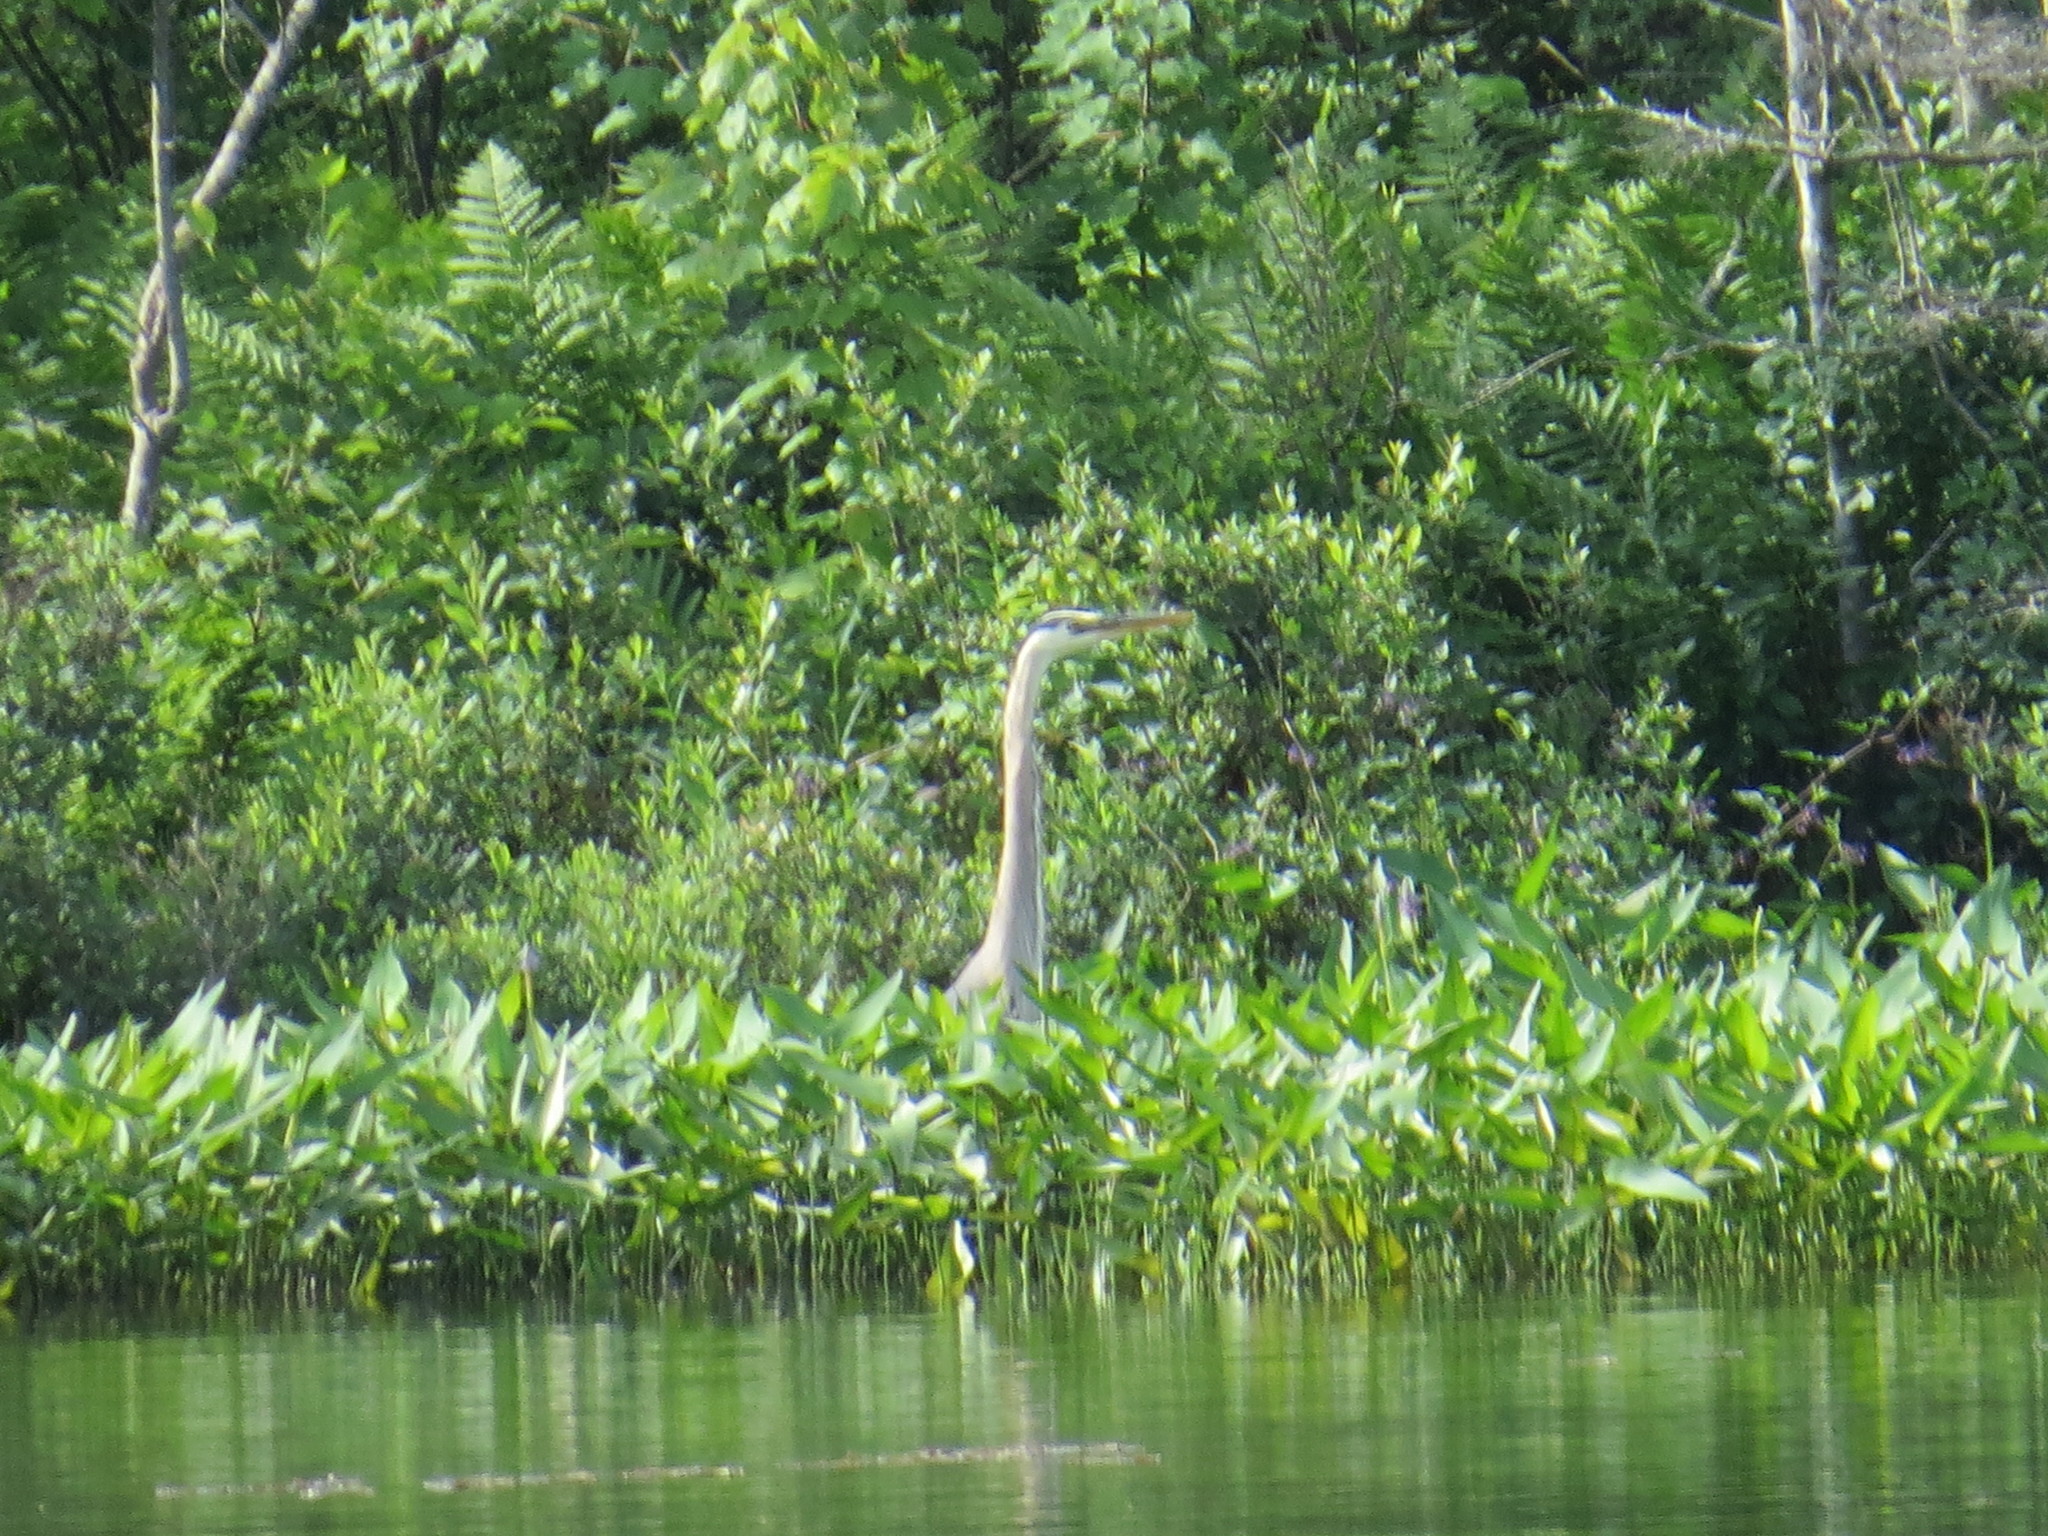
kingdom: Animalia
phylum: Chordata
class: Aves
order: Pelecaniformes
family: Ardeidae
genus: Ardea
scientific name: Ardea herodias
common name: Great blue heron
